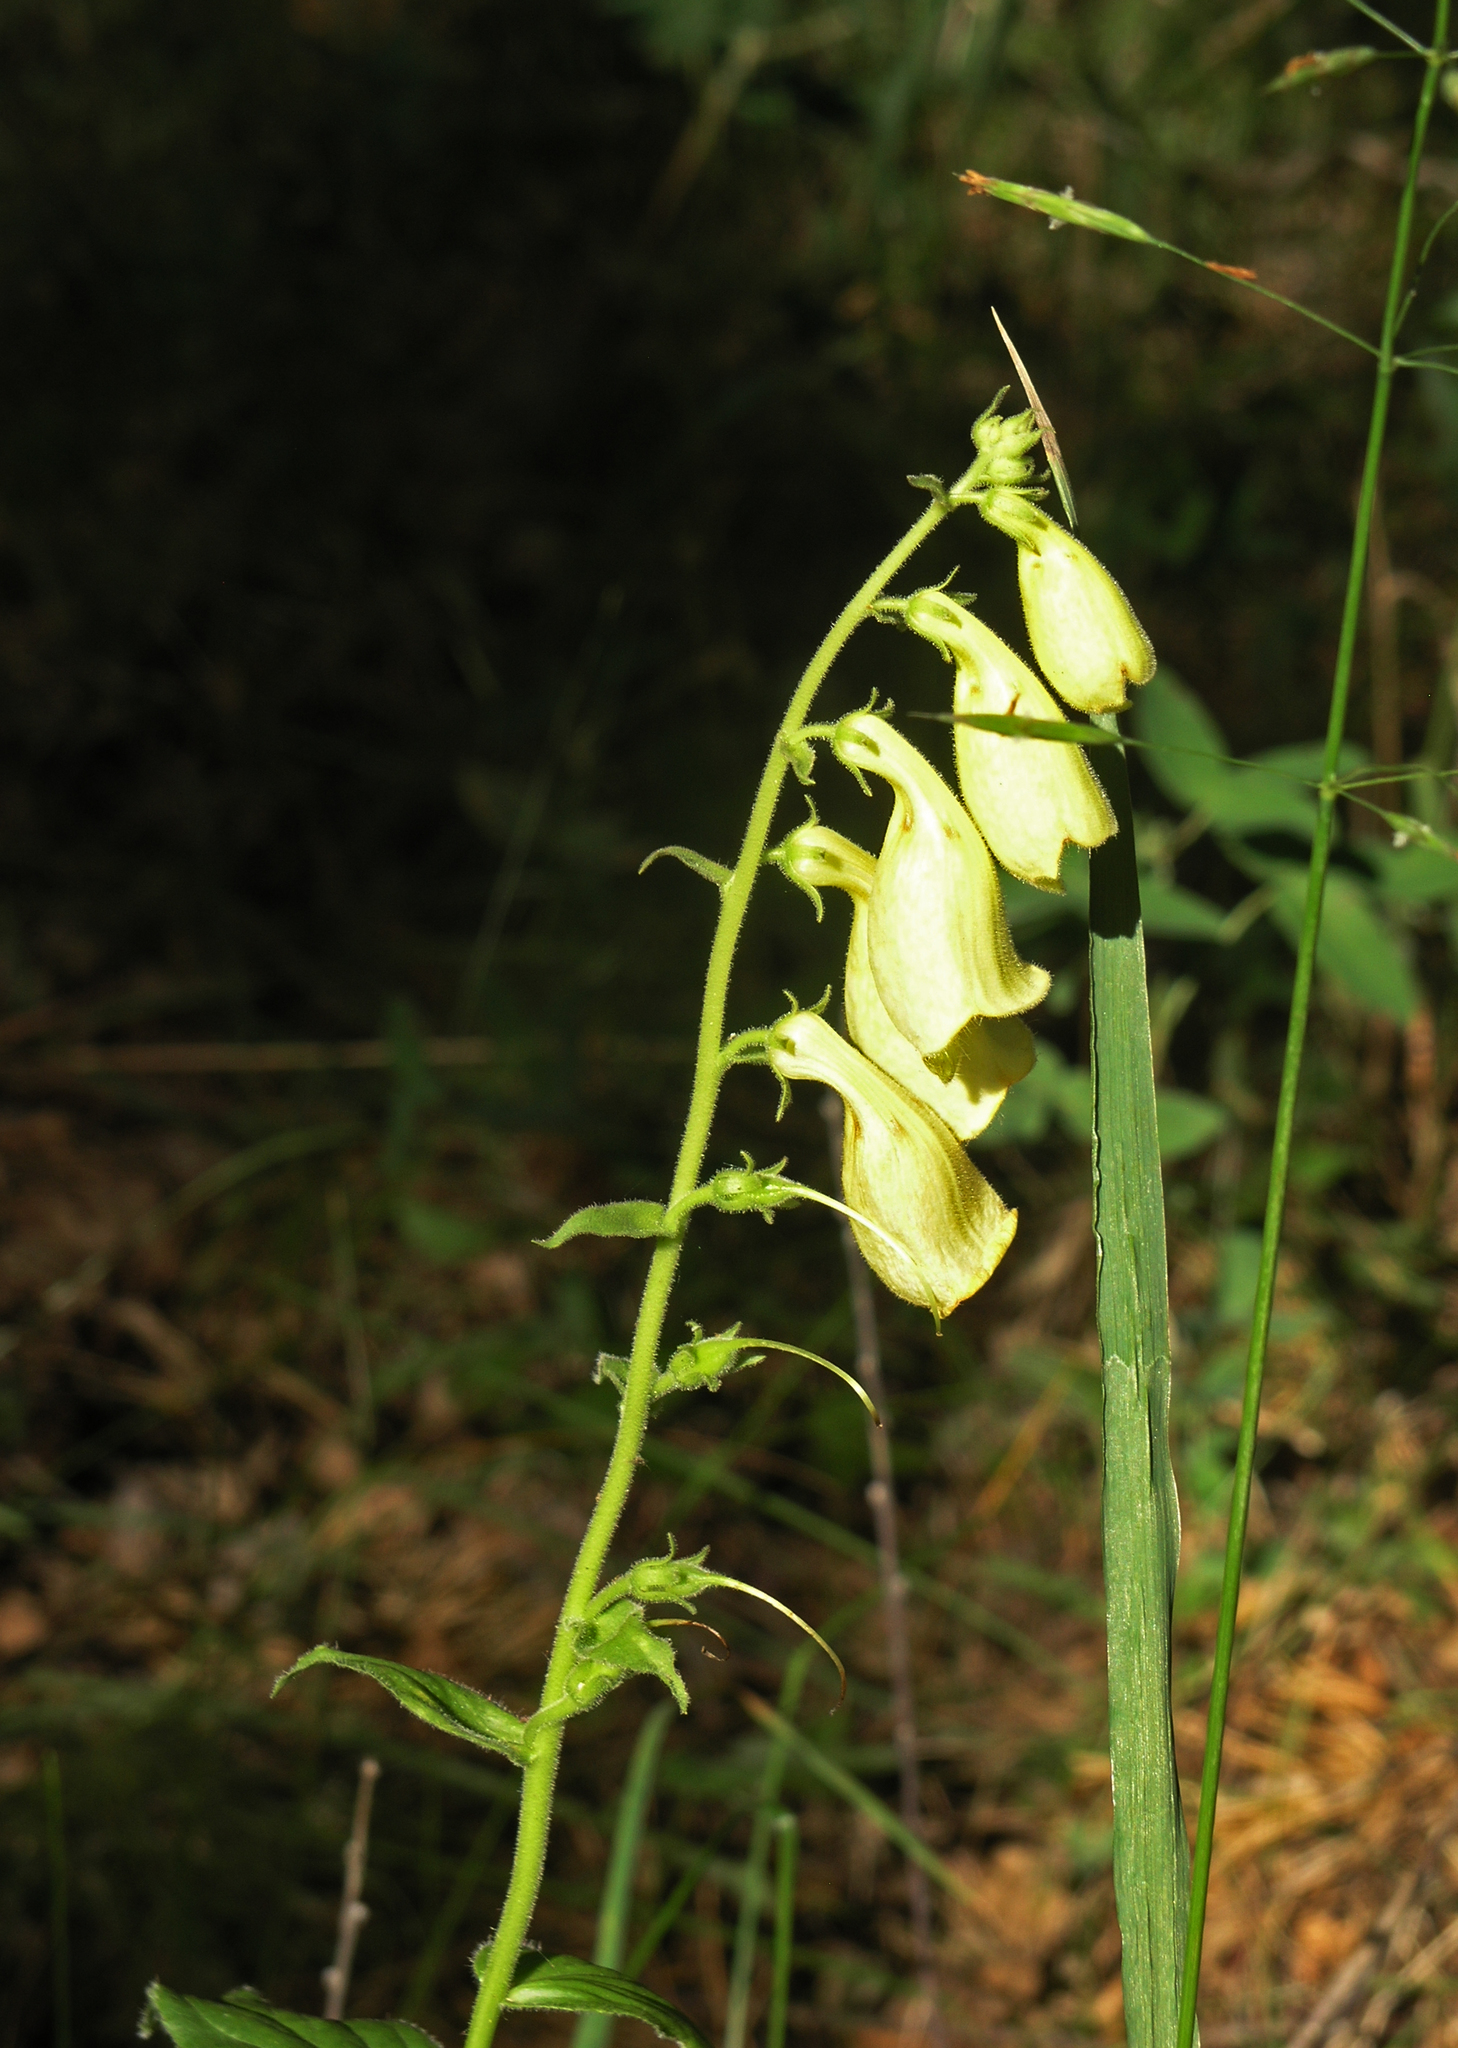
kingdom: Plantae
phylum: Tracheophyta
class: Magnoliopsida
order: Lamiales
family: Plantaginaceae
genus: Digitalis
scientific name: Digitalis grandiflora
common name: Yellow foxglove
